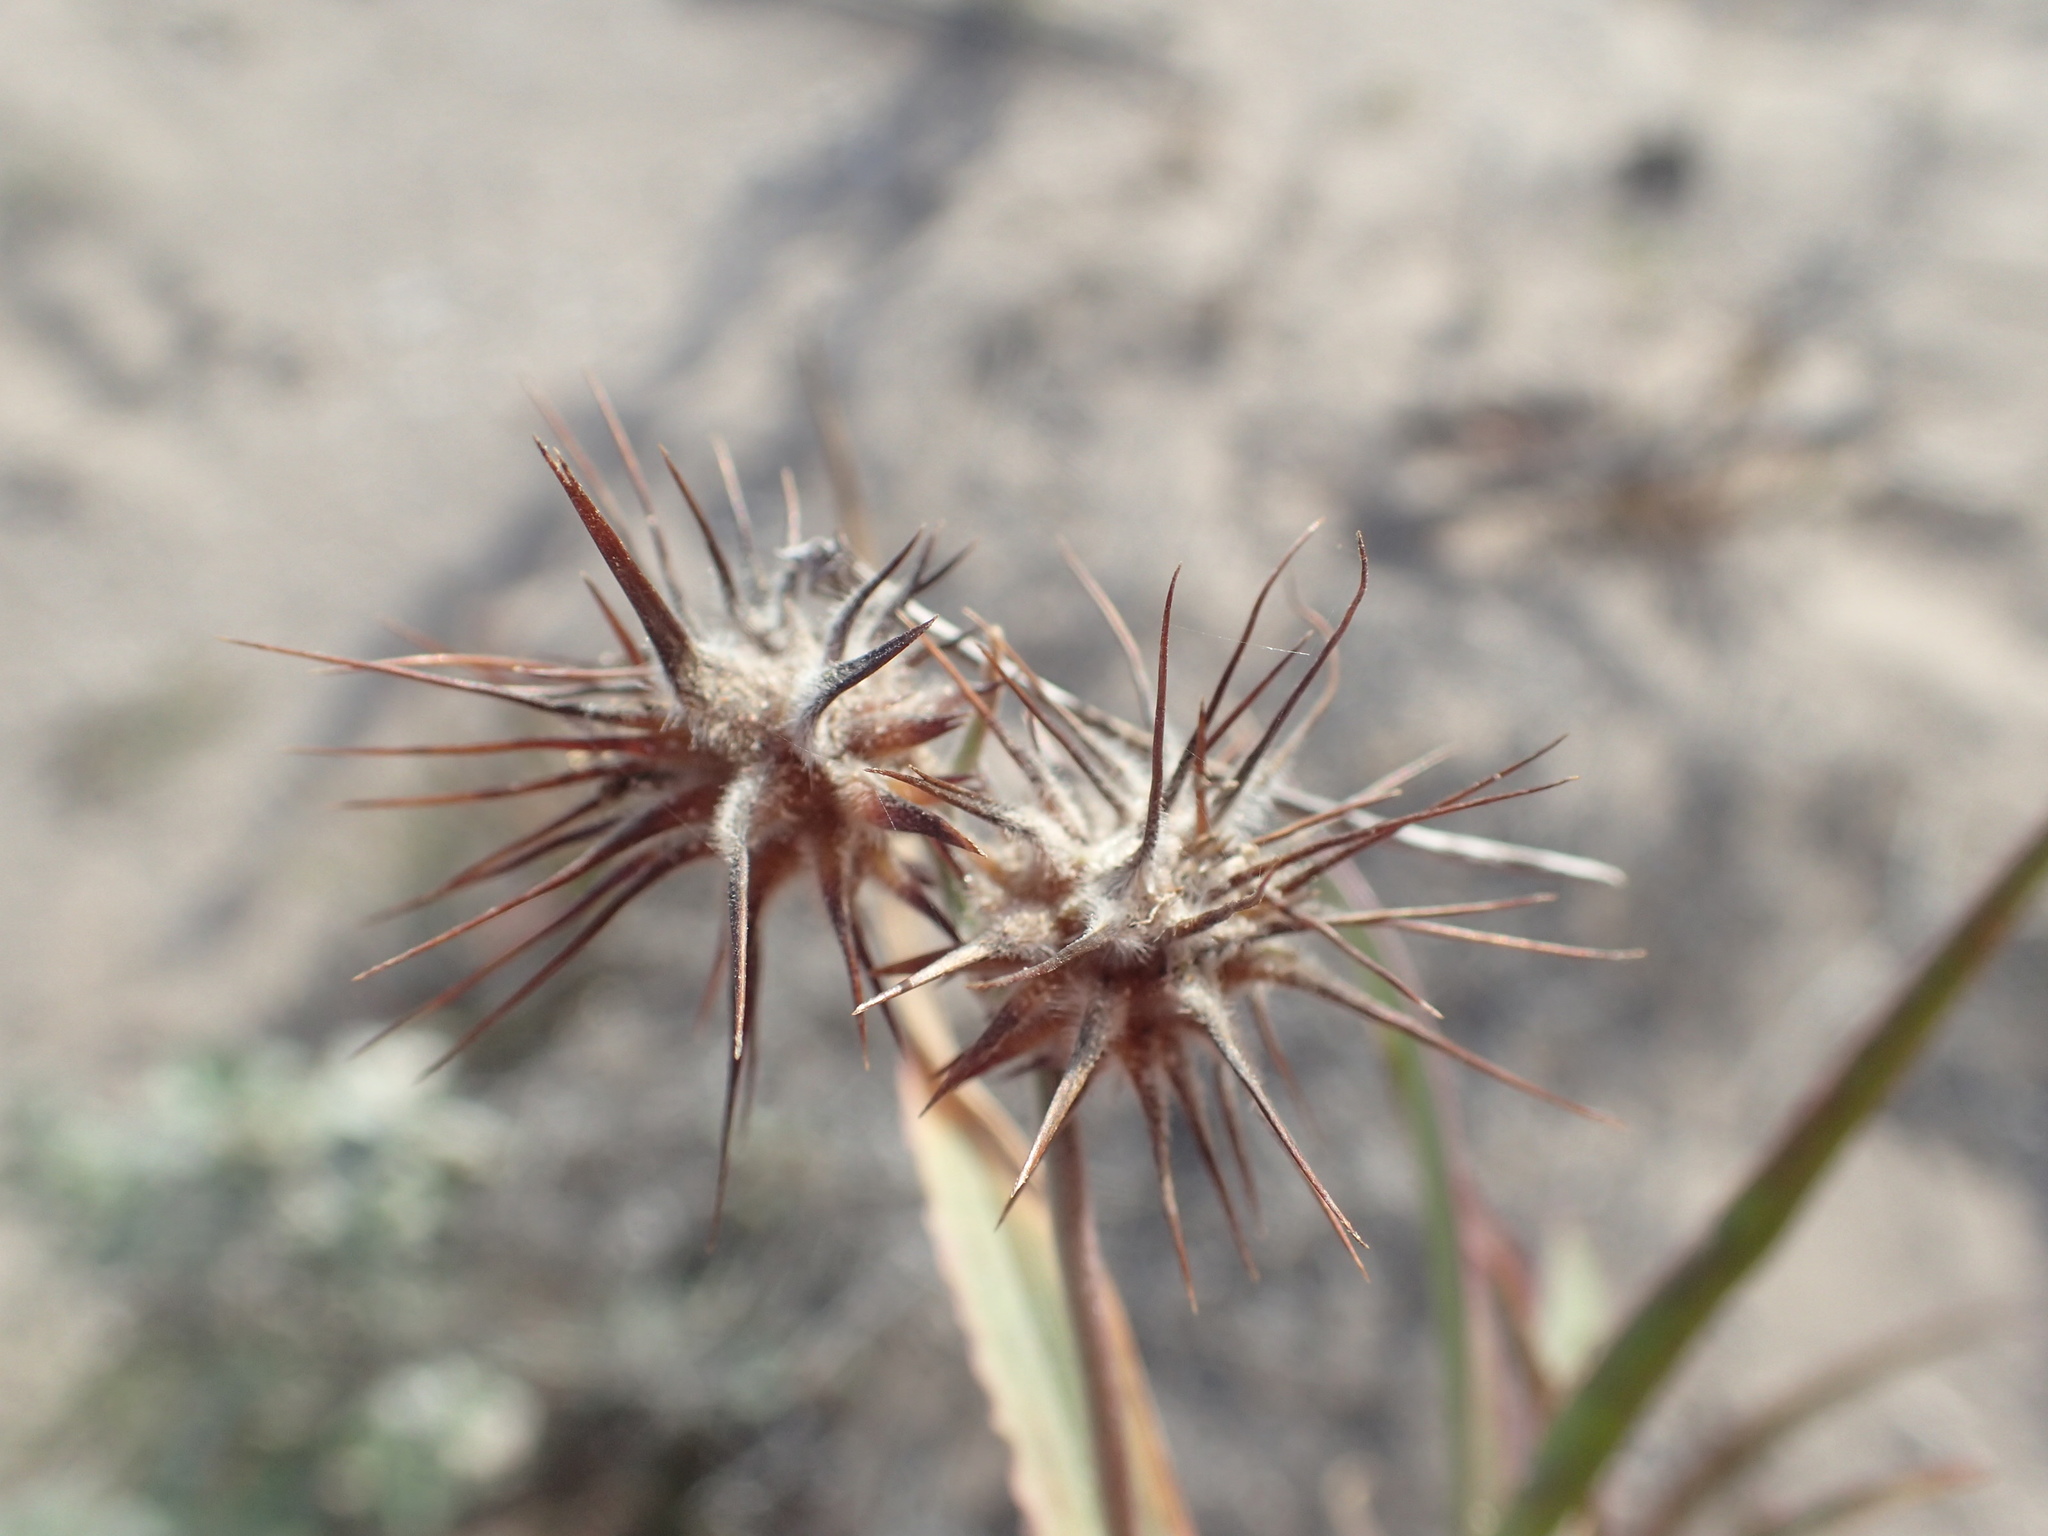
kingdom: Plantae
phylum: Tracheophyta
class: Liliopsida
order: Poales
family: Poaceae
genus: Cenchrus
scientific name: Cenchrus palmeri
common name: Giant sandbur
